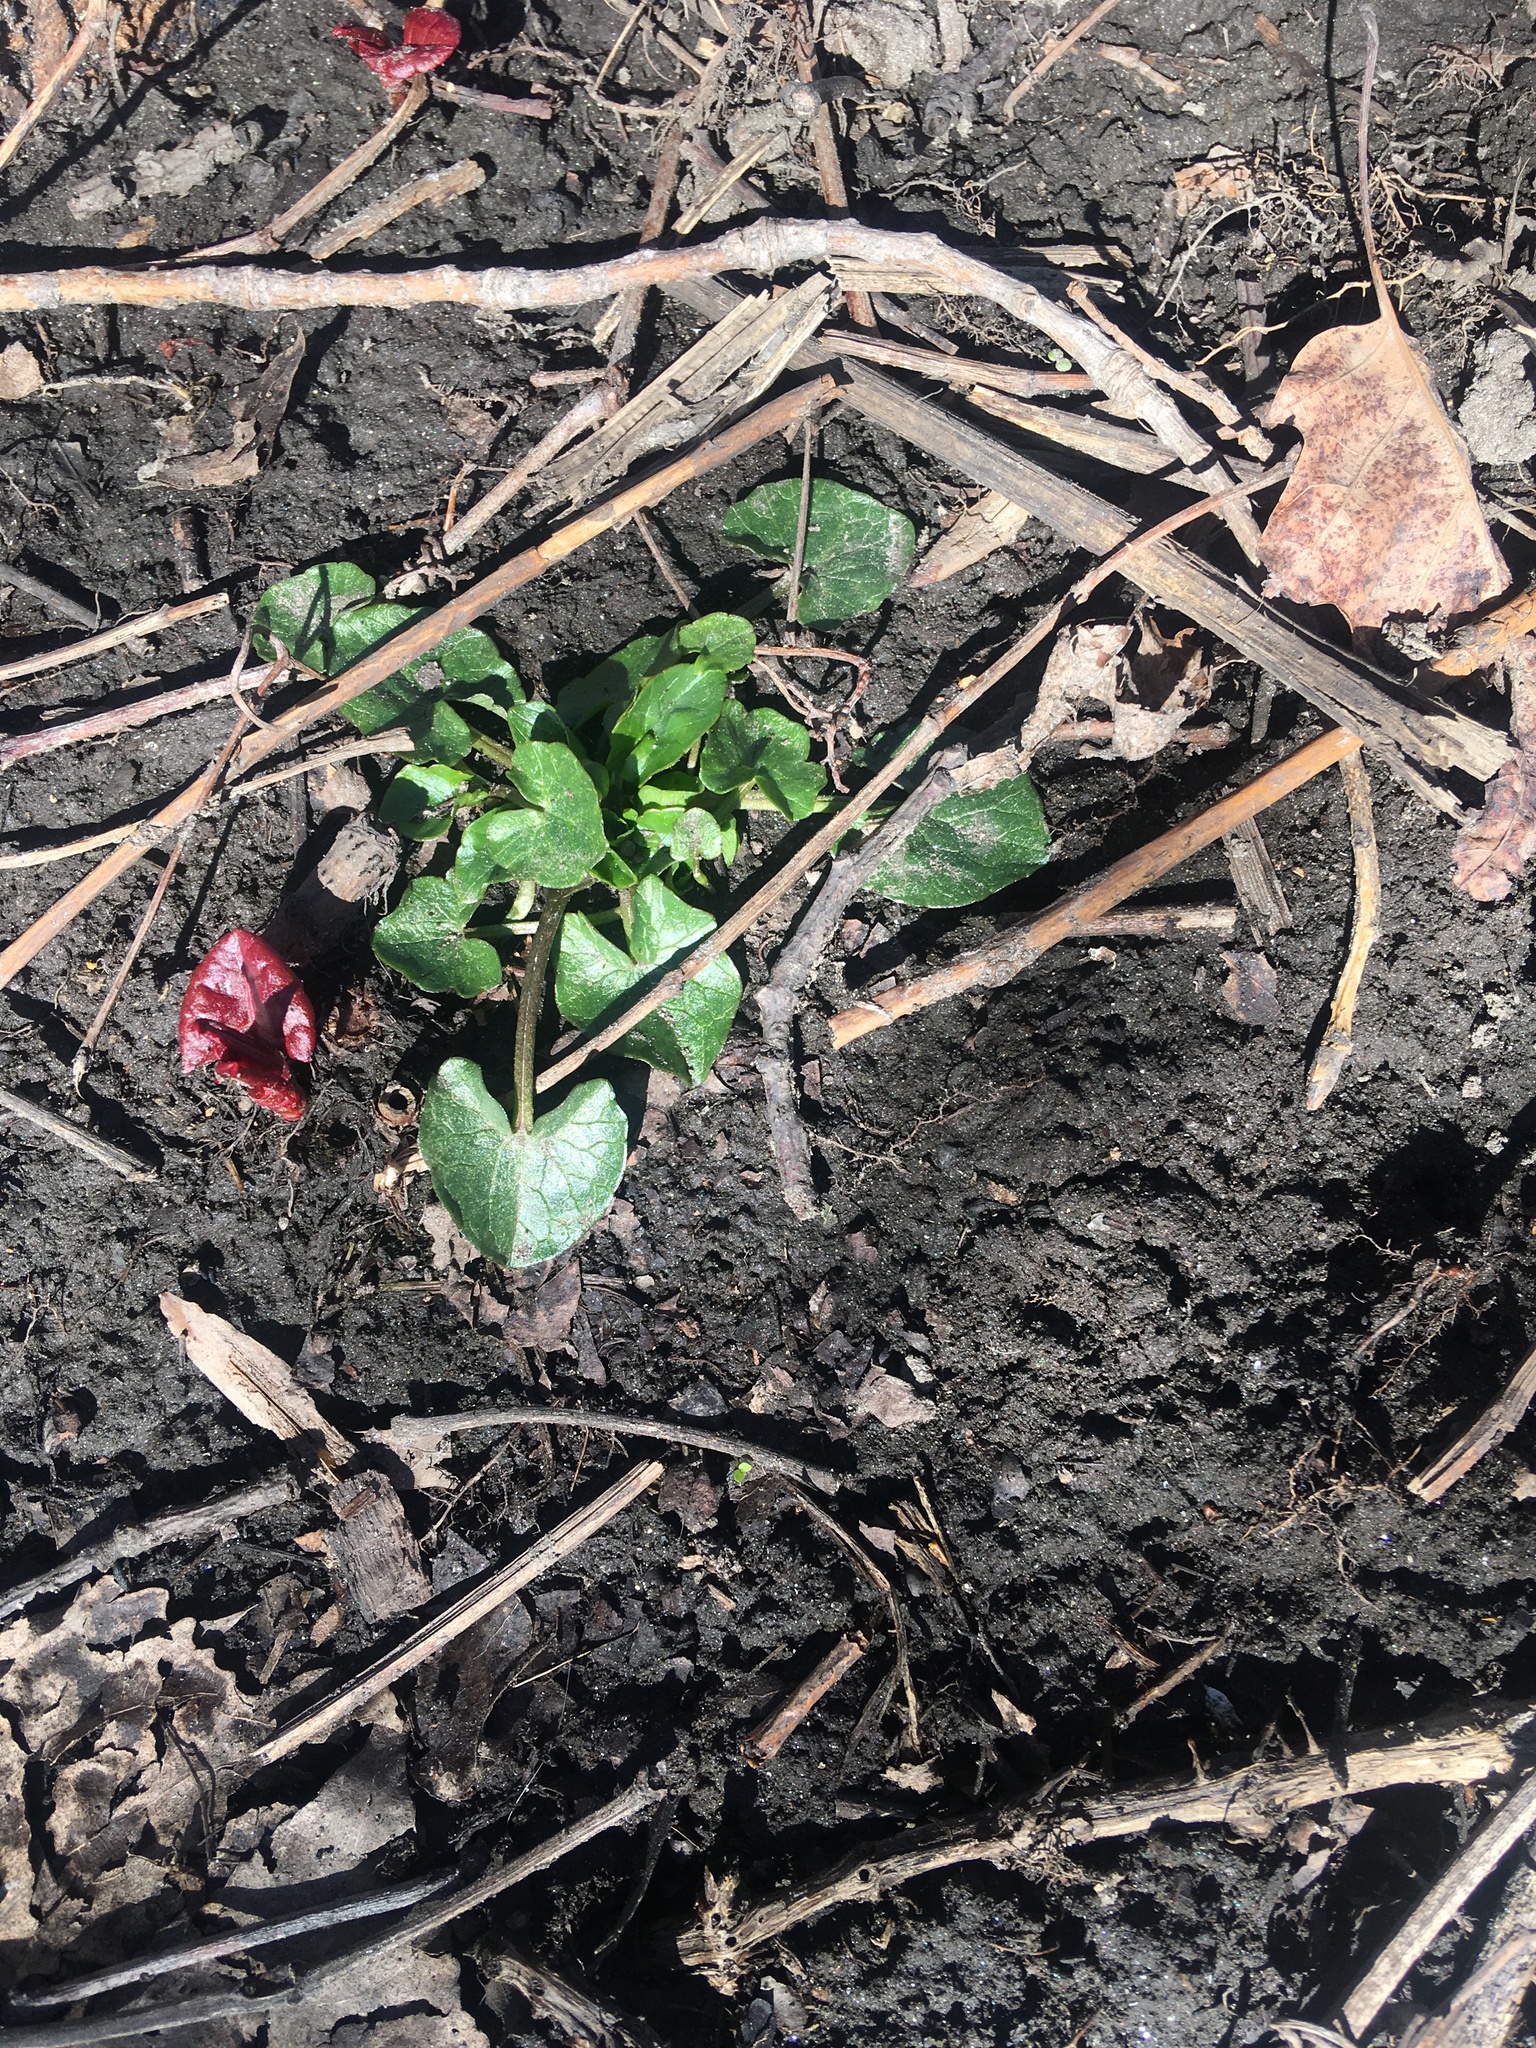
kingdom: Plantae
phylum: Tracheophyta
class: Magnoliopsida
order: Ranunculales
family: Ranunculaceae
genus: Ficaria
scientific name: Ficaria verna
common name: Lesser celandine
